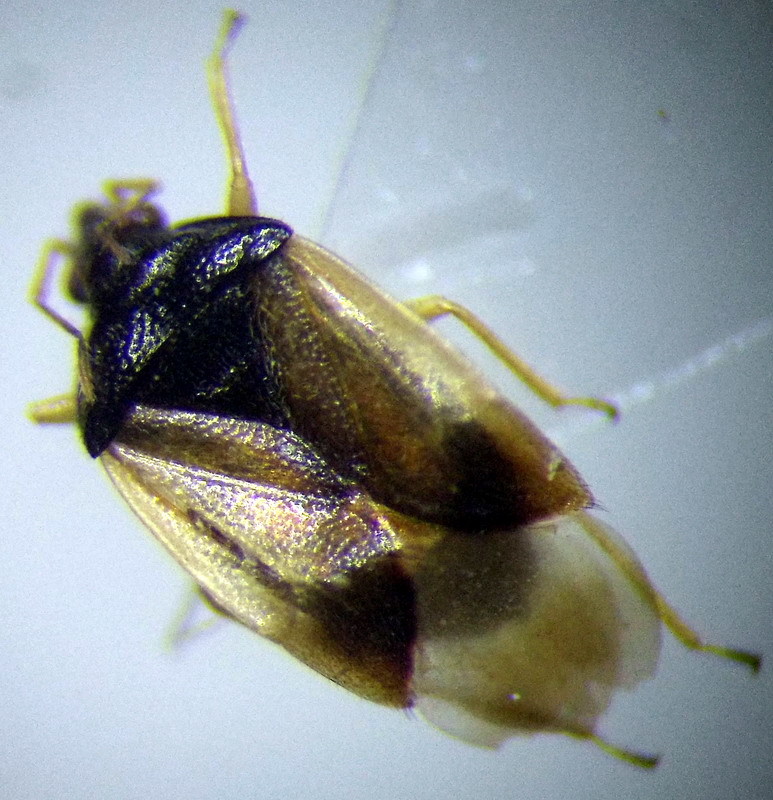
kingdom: Animalia
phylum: Arthropoda
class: Insecta
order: Hemiptera
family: Anthocoridae
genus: Orius
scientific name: Orius minutus
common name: Minute pirate bug
